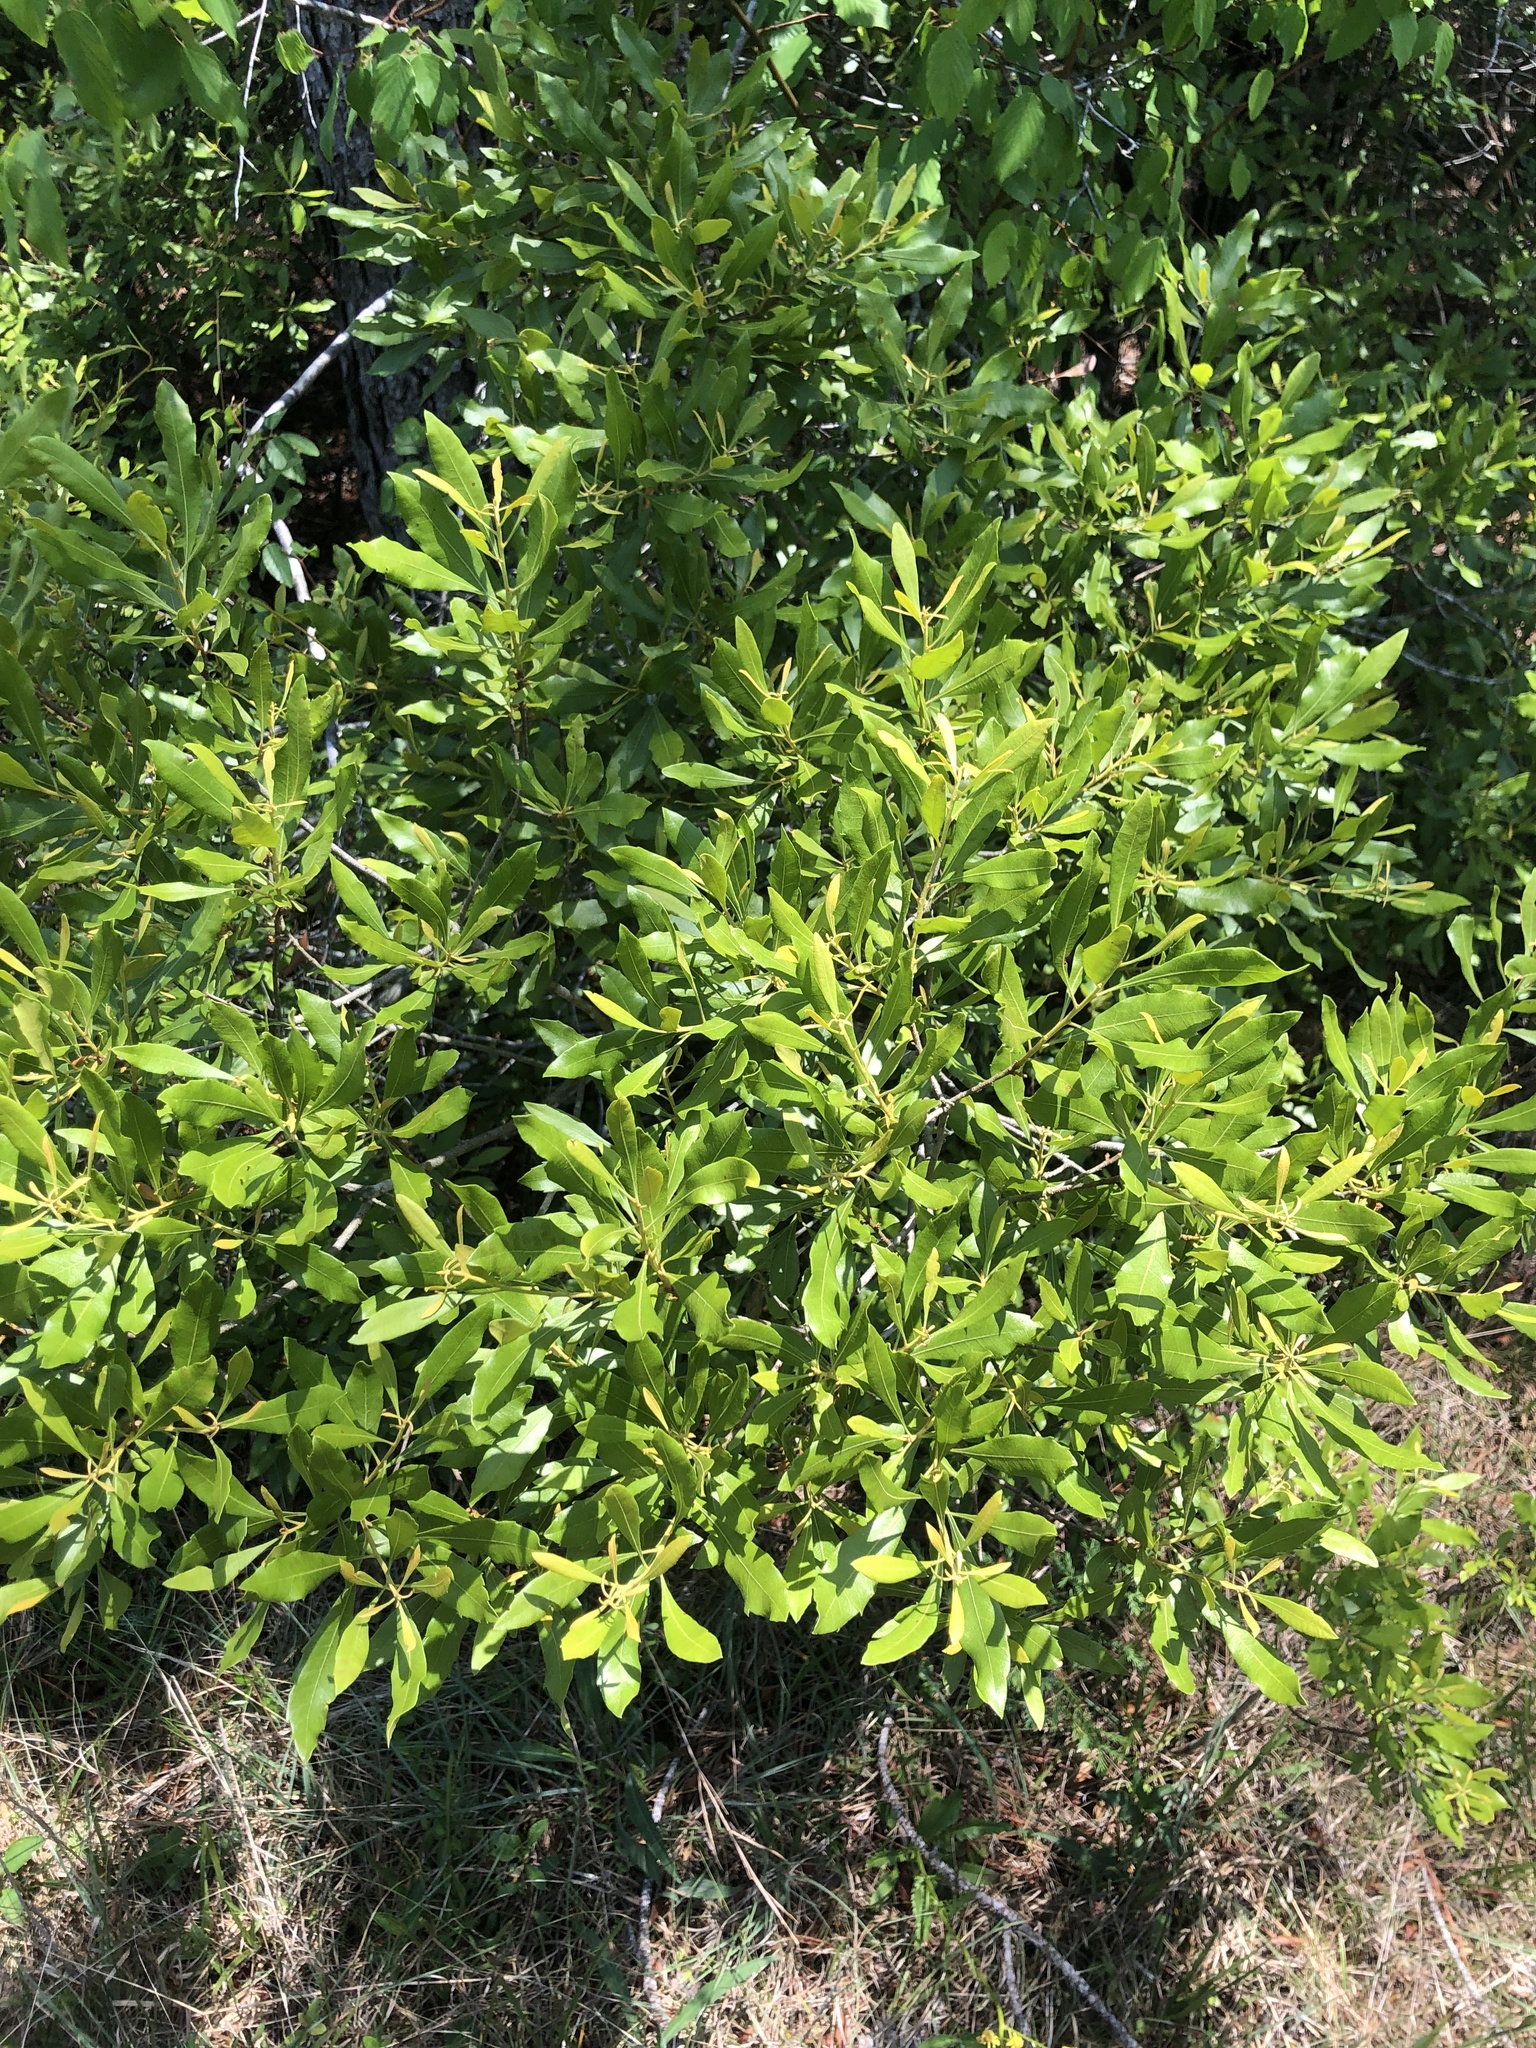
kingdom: Plantae
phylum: Tracheophyta
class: Magnoliopsida
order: Fagales
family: Myricaceae
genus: Morella
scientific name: Morella cerifera
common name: Wax myrtle
